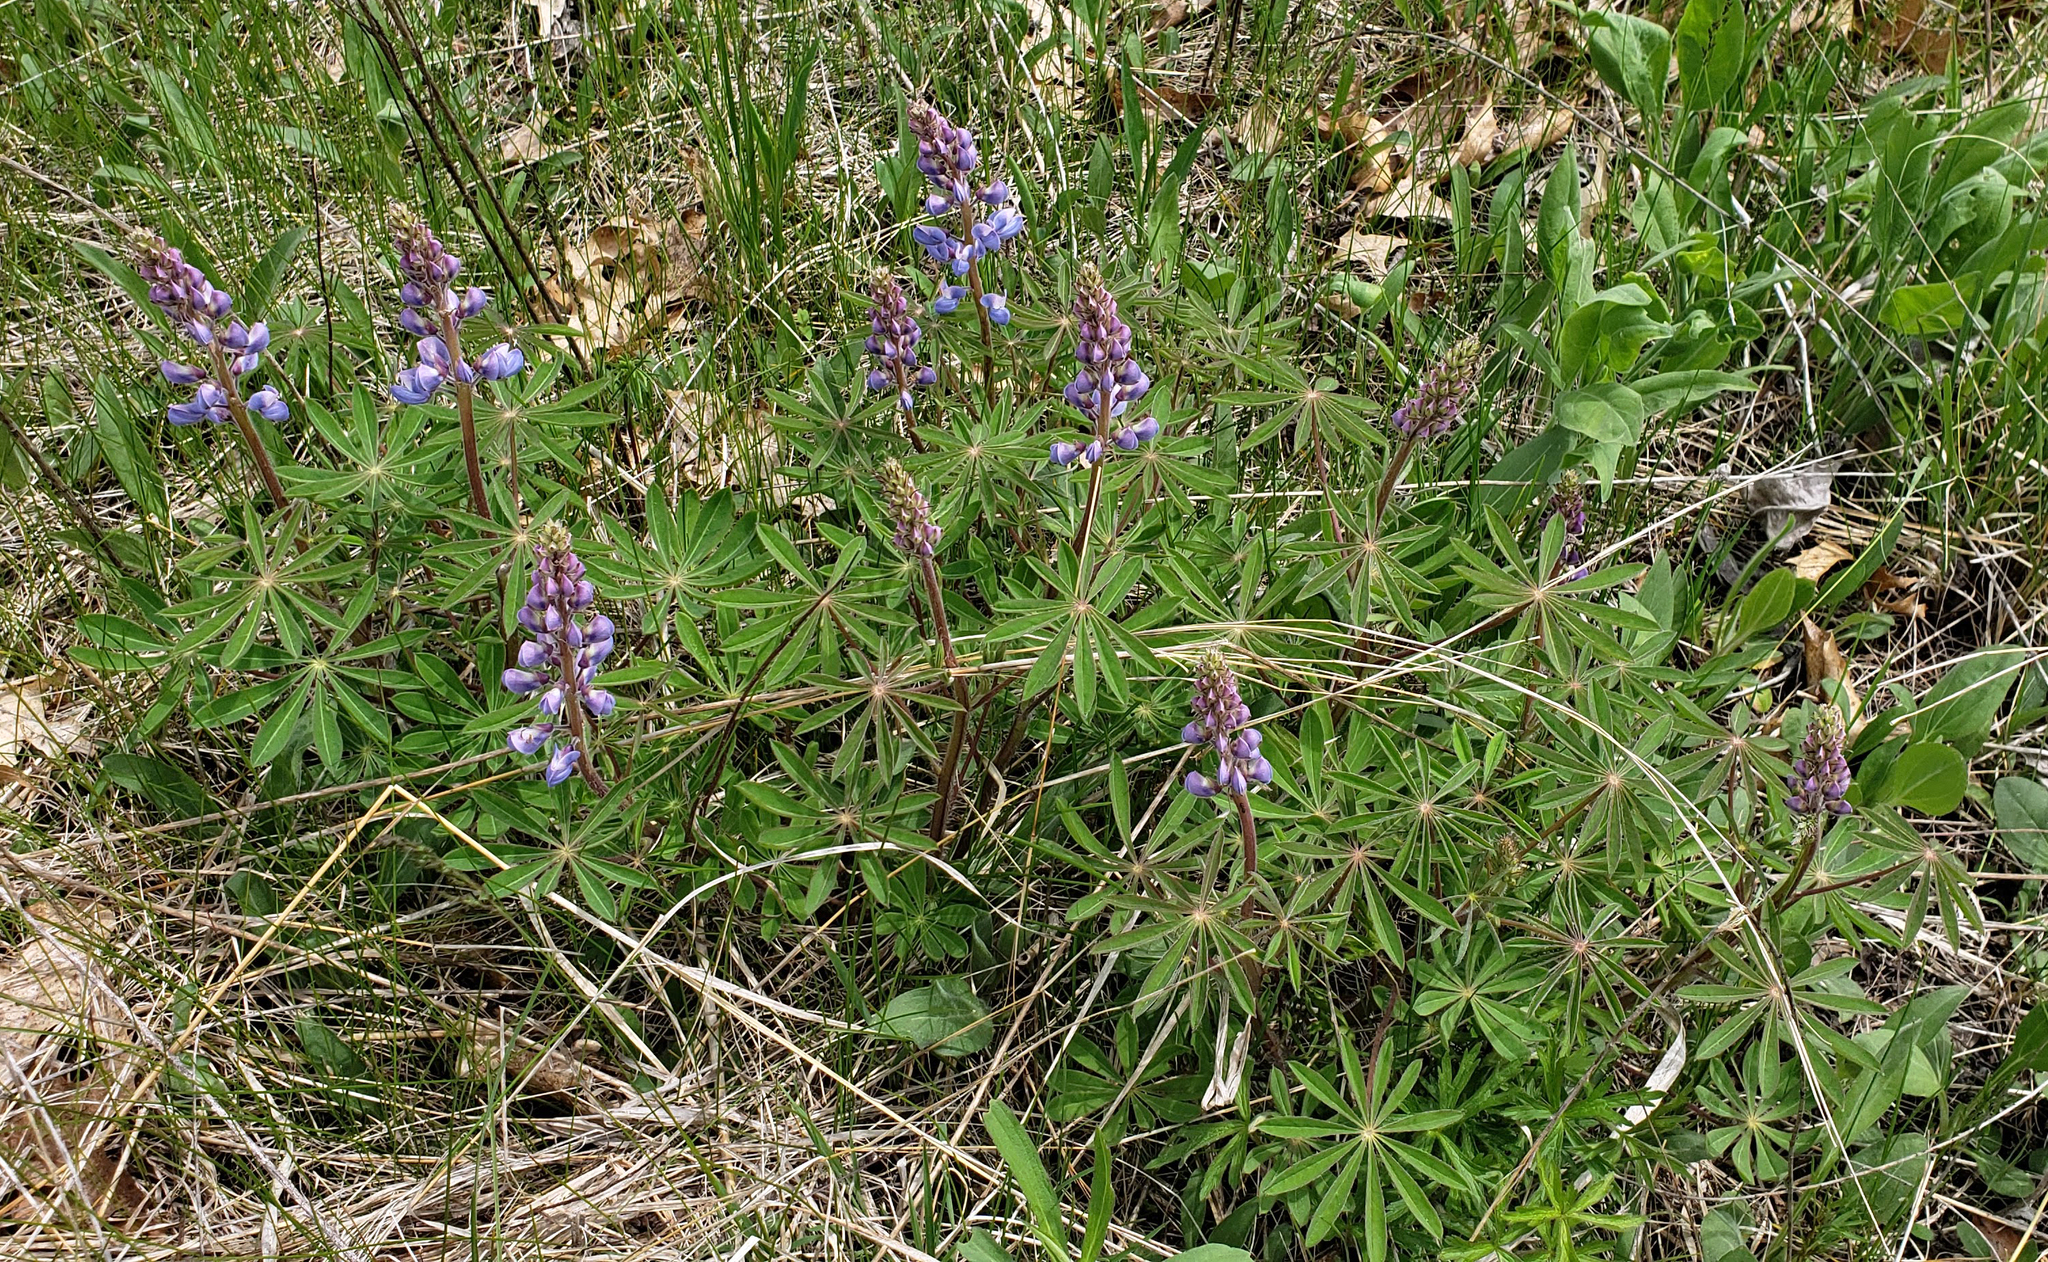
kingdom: Plantae
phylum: Tracheophyta
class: Magnoliopsida
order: Fabales
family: Fabaceae
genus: Lupinus
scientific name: Lupinus perennis
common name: Sundial lupine
